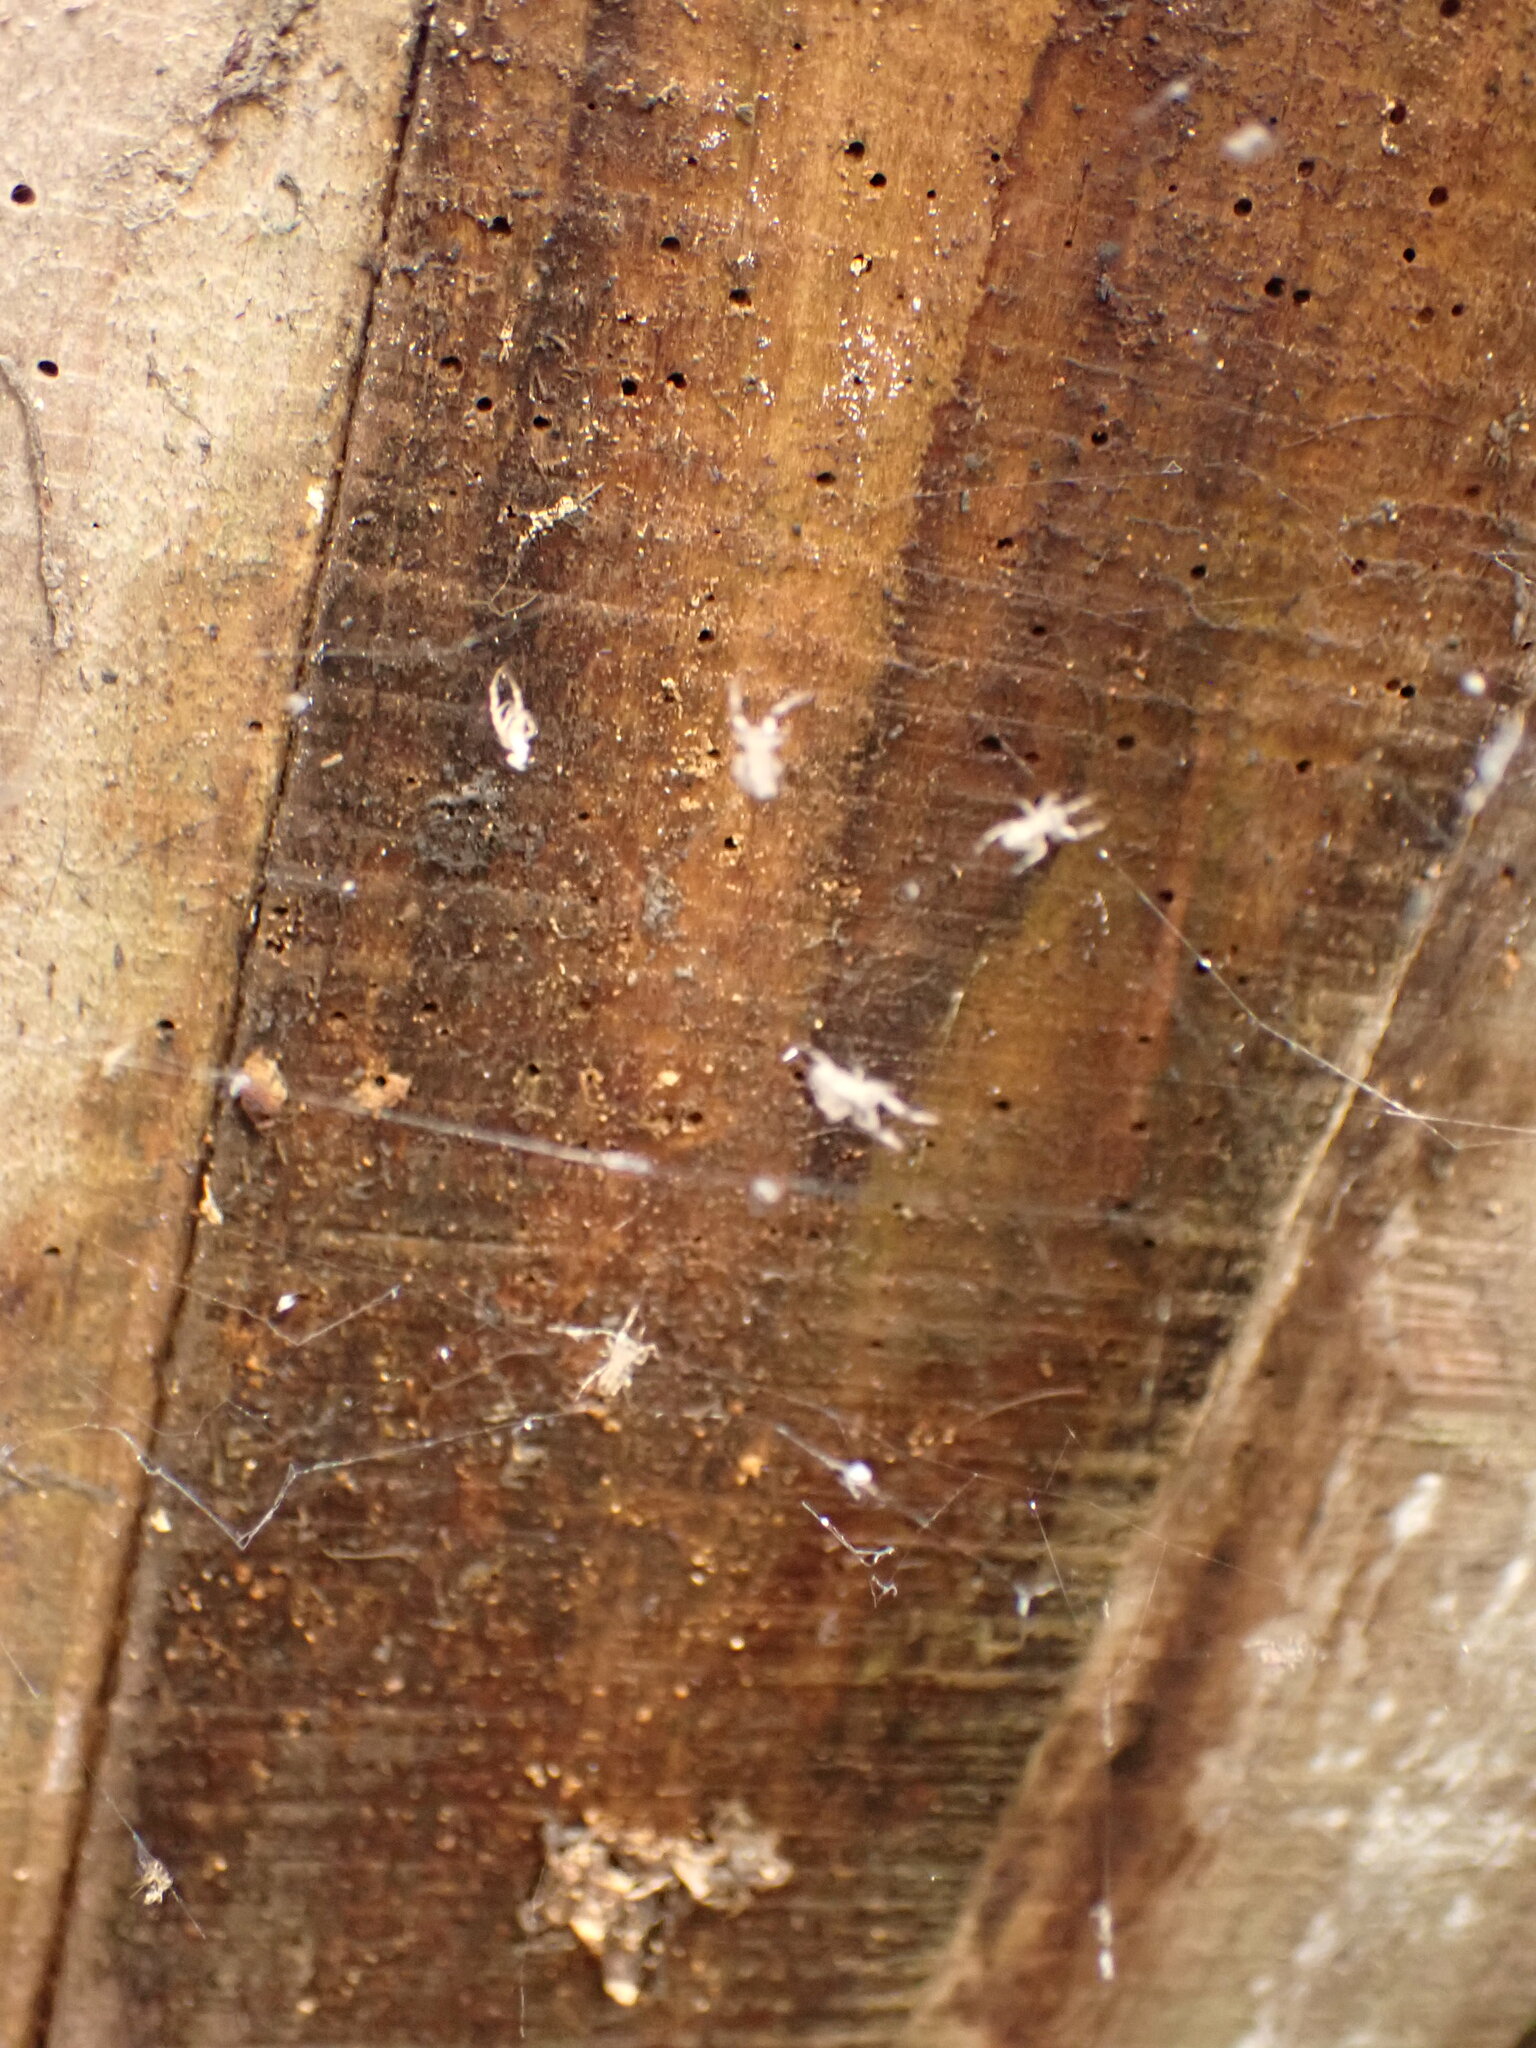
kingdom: Animalia
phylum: Arthropoda
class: Arachnida
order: Araneae
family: Uloboridae
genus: Philoponella
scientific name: Philoponella congregabilis
